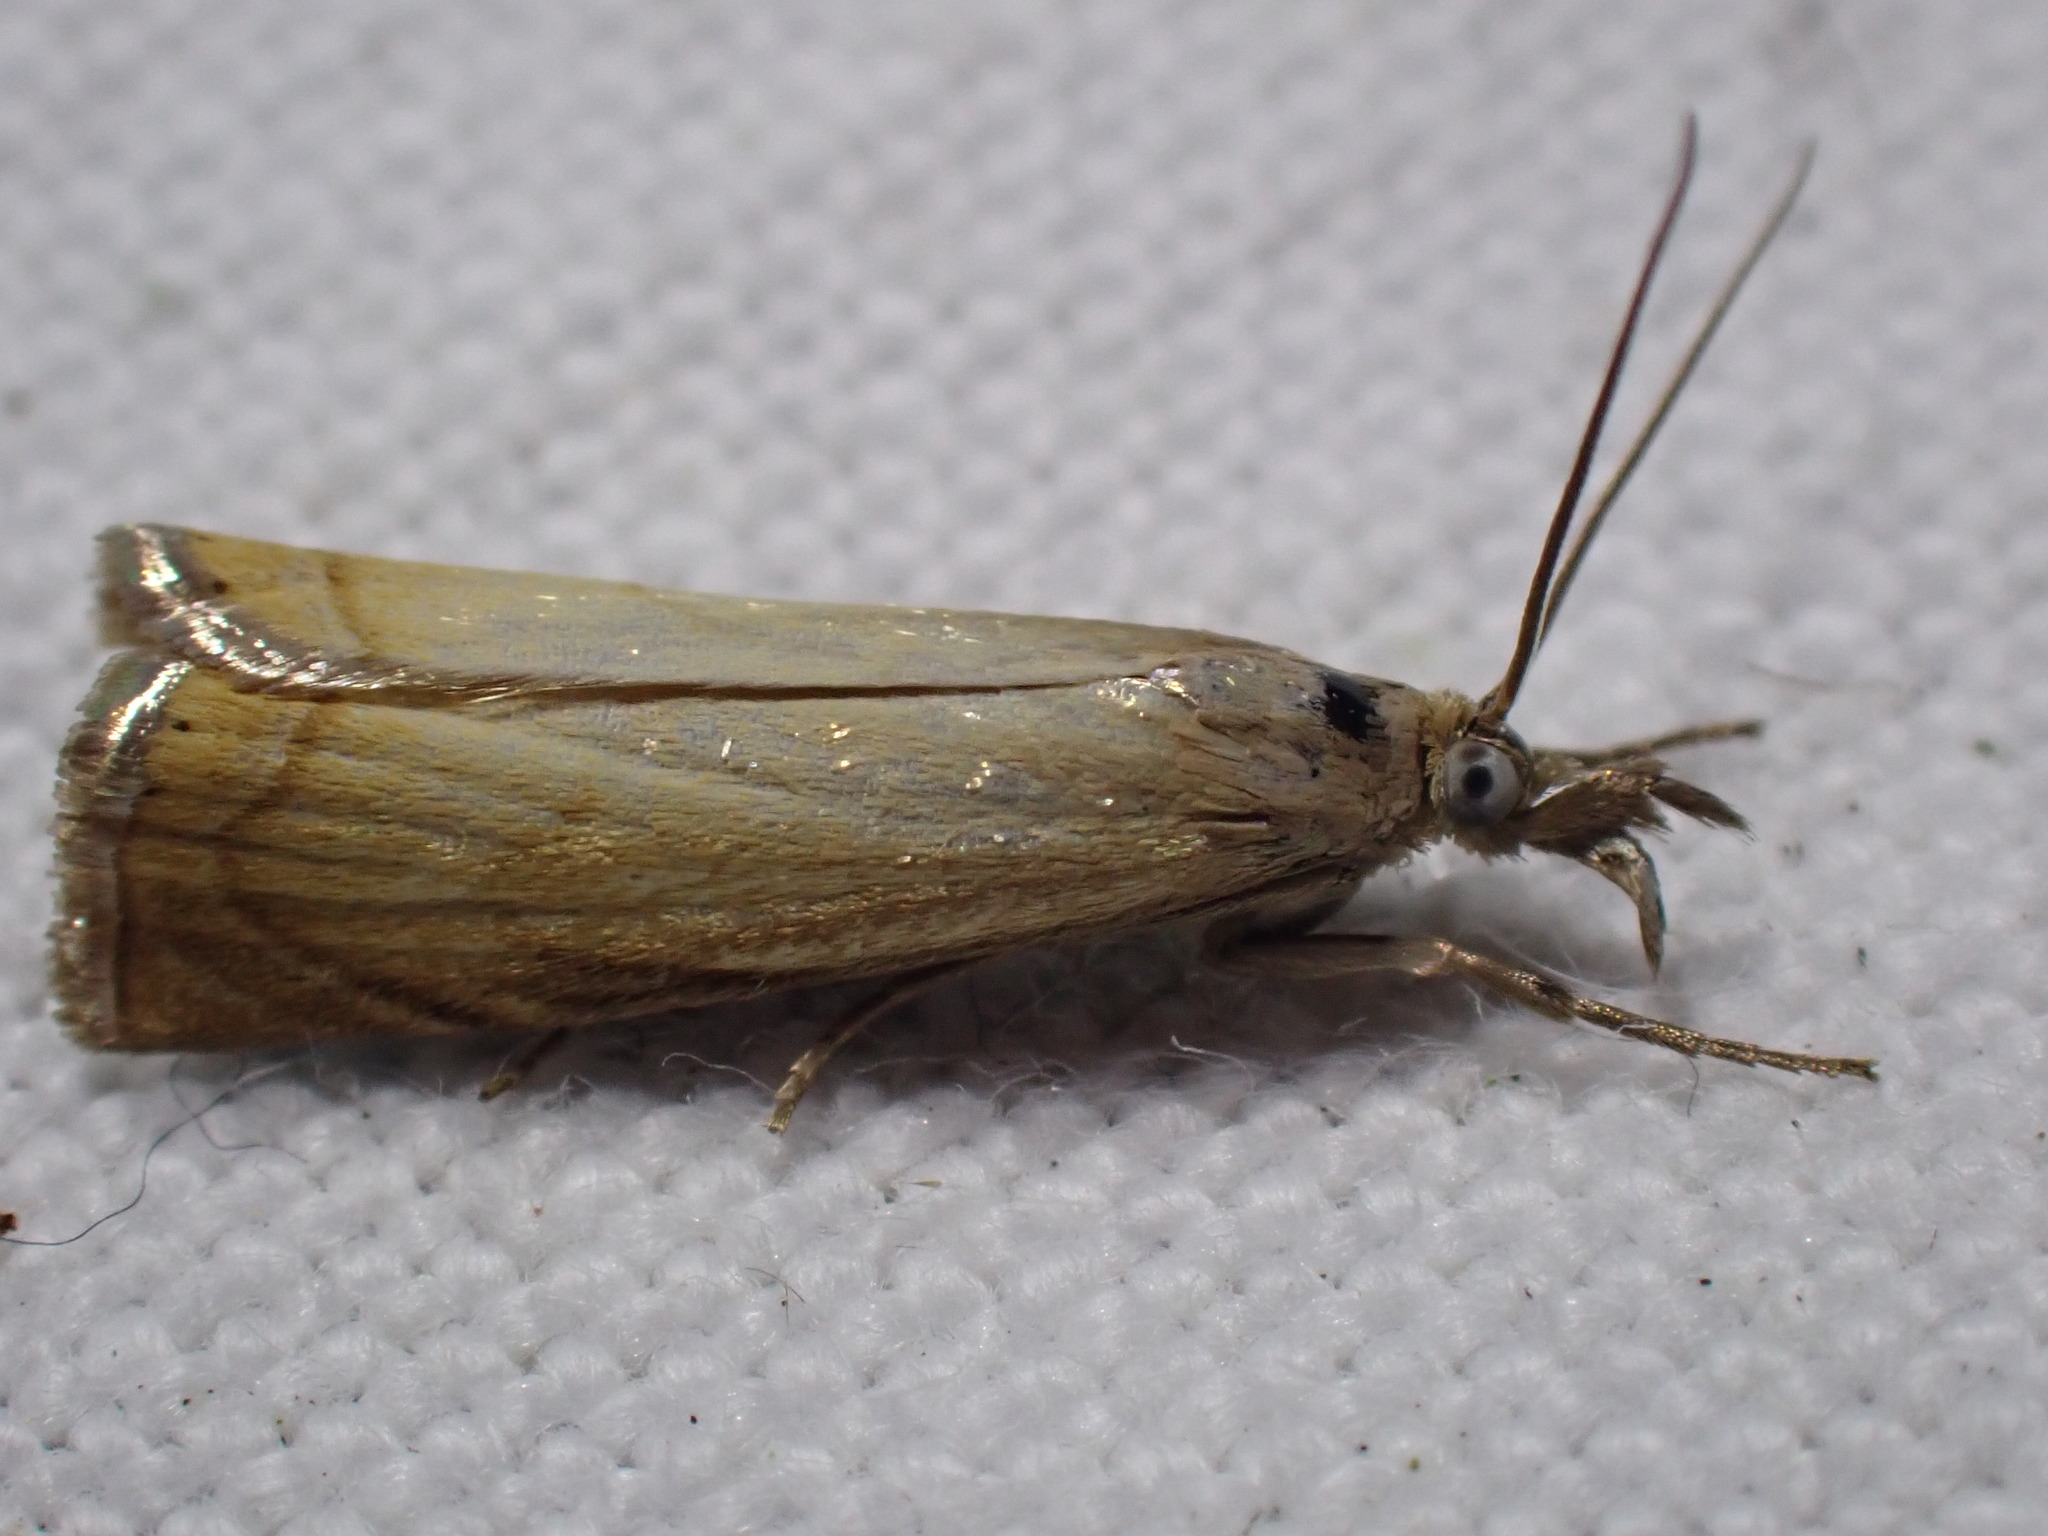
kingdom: Animalia
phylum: Arthropoda
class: Insecta
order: Lepidoptera
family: Crambidae
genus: Chrysoteuchia
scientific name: Chrysoteuchia culmella
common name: Garden grass-veneer
